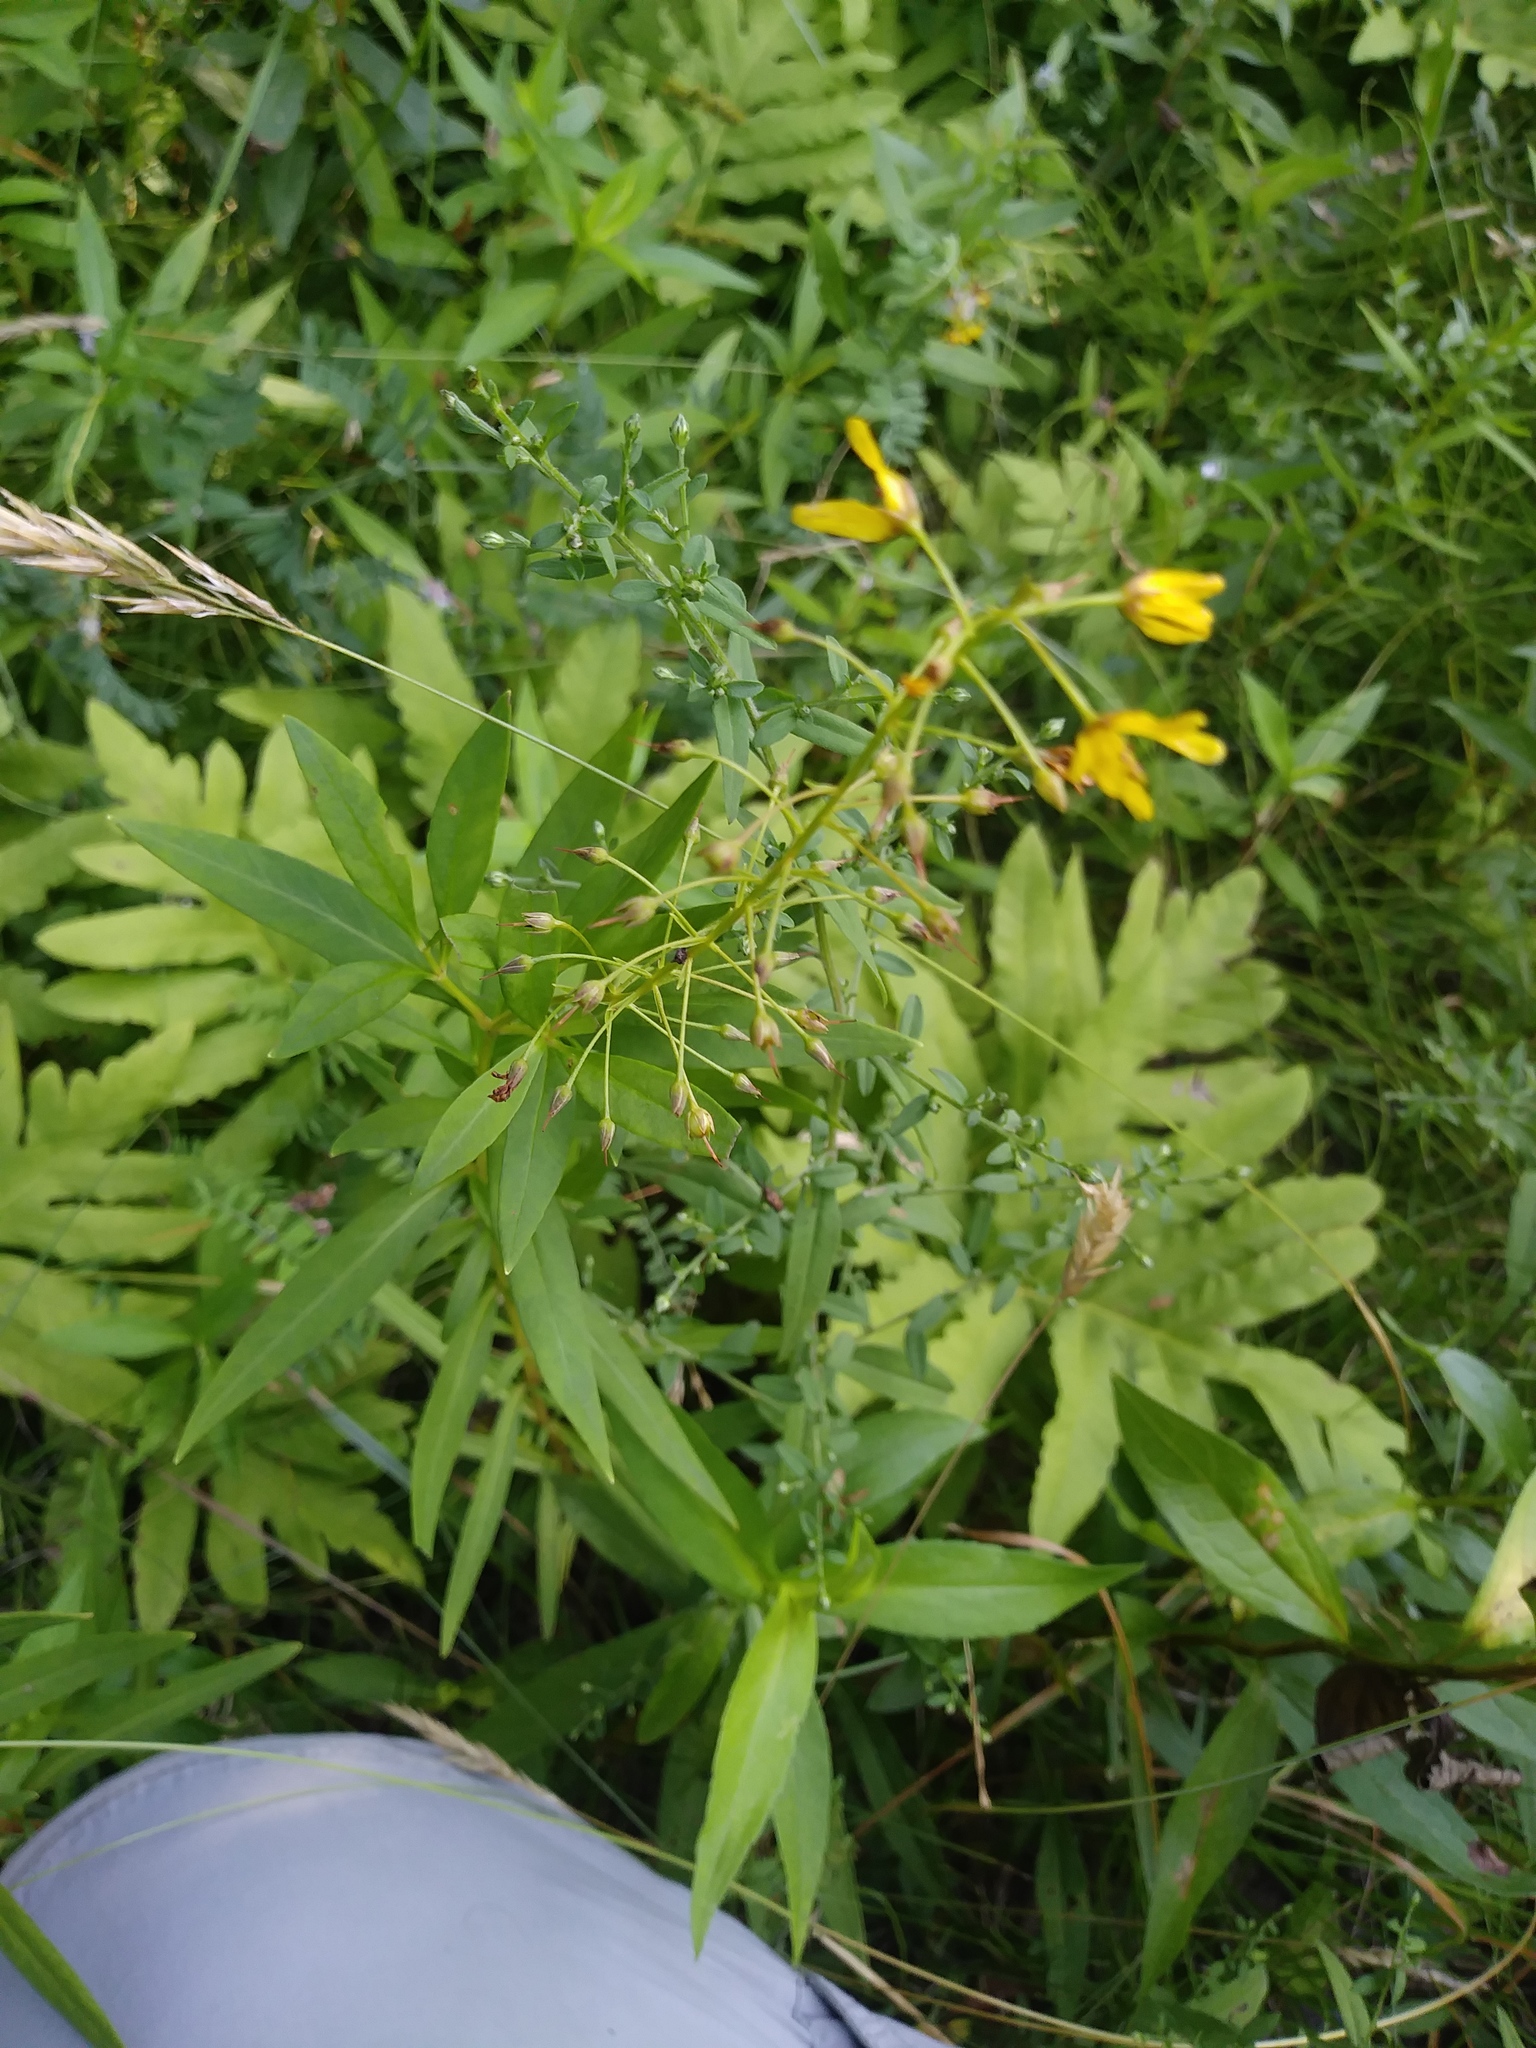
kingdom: Plantae
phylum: Tracheophyta
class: Magnoliopsida
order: Ericales
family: Primulaceae
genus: Lysimachia
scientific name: Lysimachia terrestris
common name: Lake loosestrife
